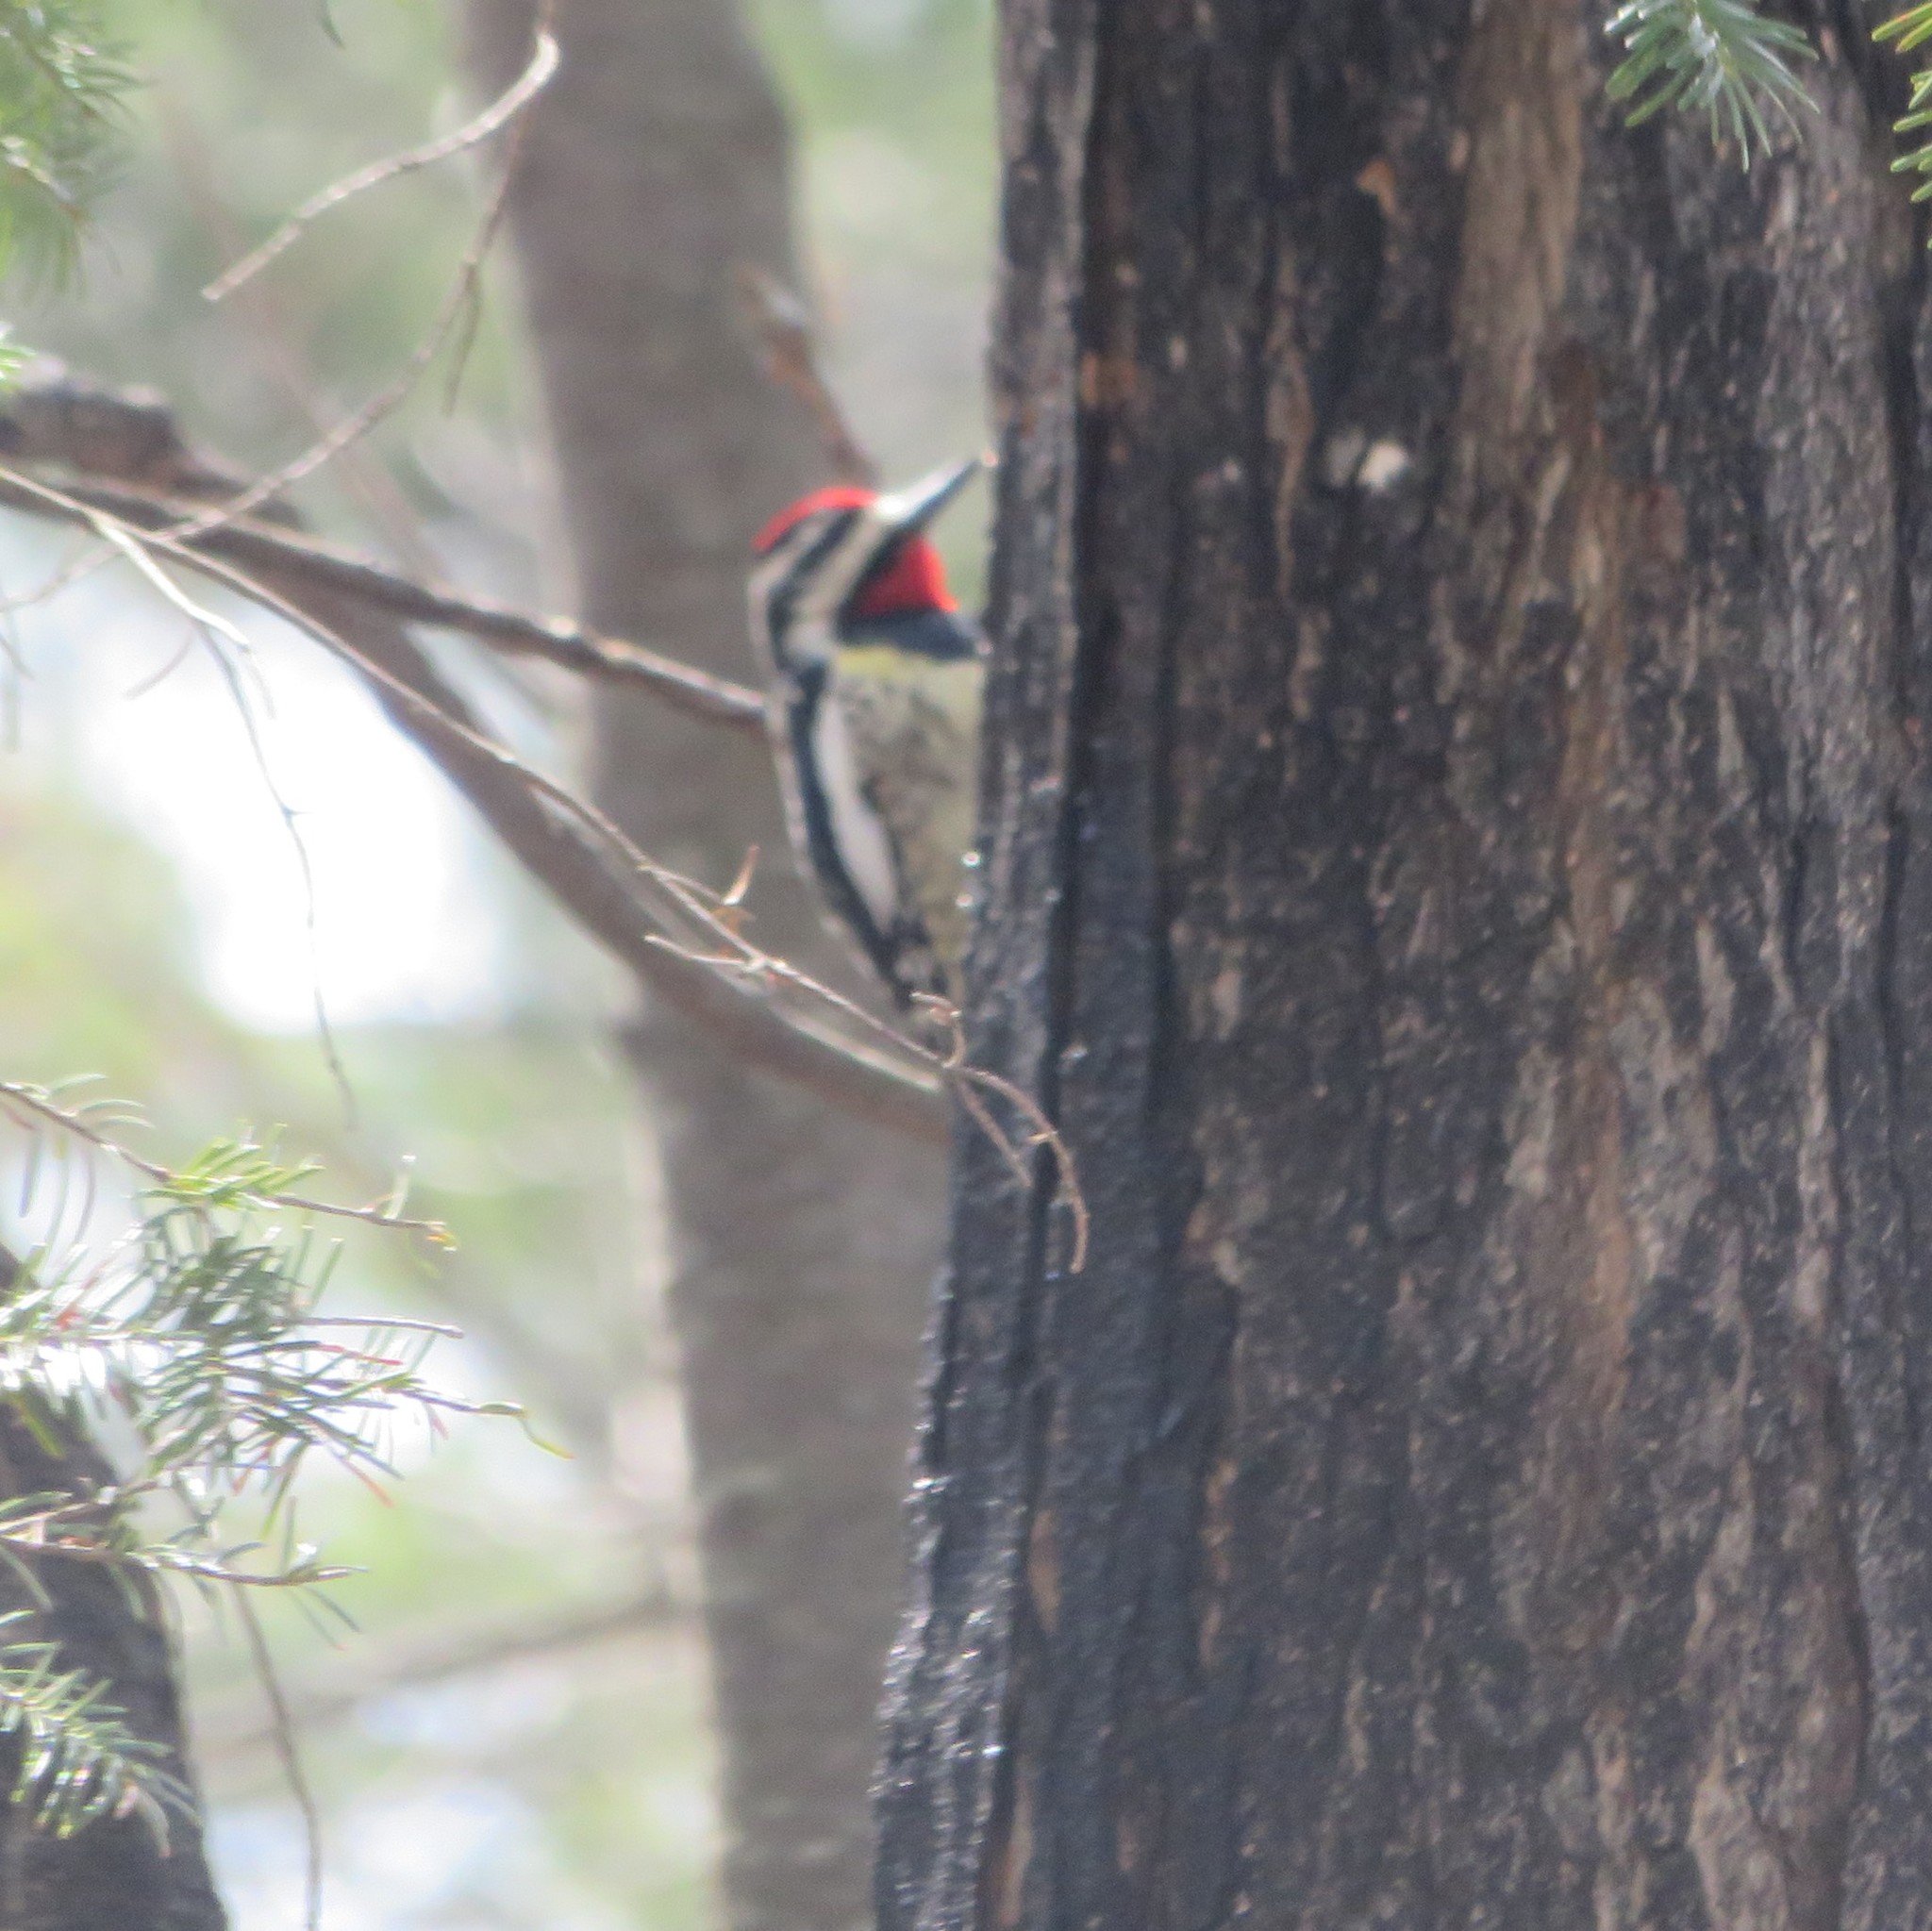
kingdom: Animalia
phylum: Chordata
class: Aves
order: Piciformes
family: Picidae
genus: Sphyrapicus
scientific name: Sphyrapicus varius
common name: Yellow-bellied sapsucker
